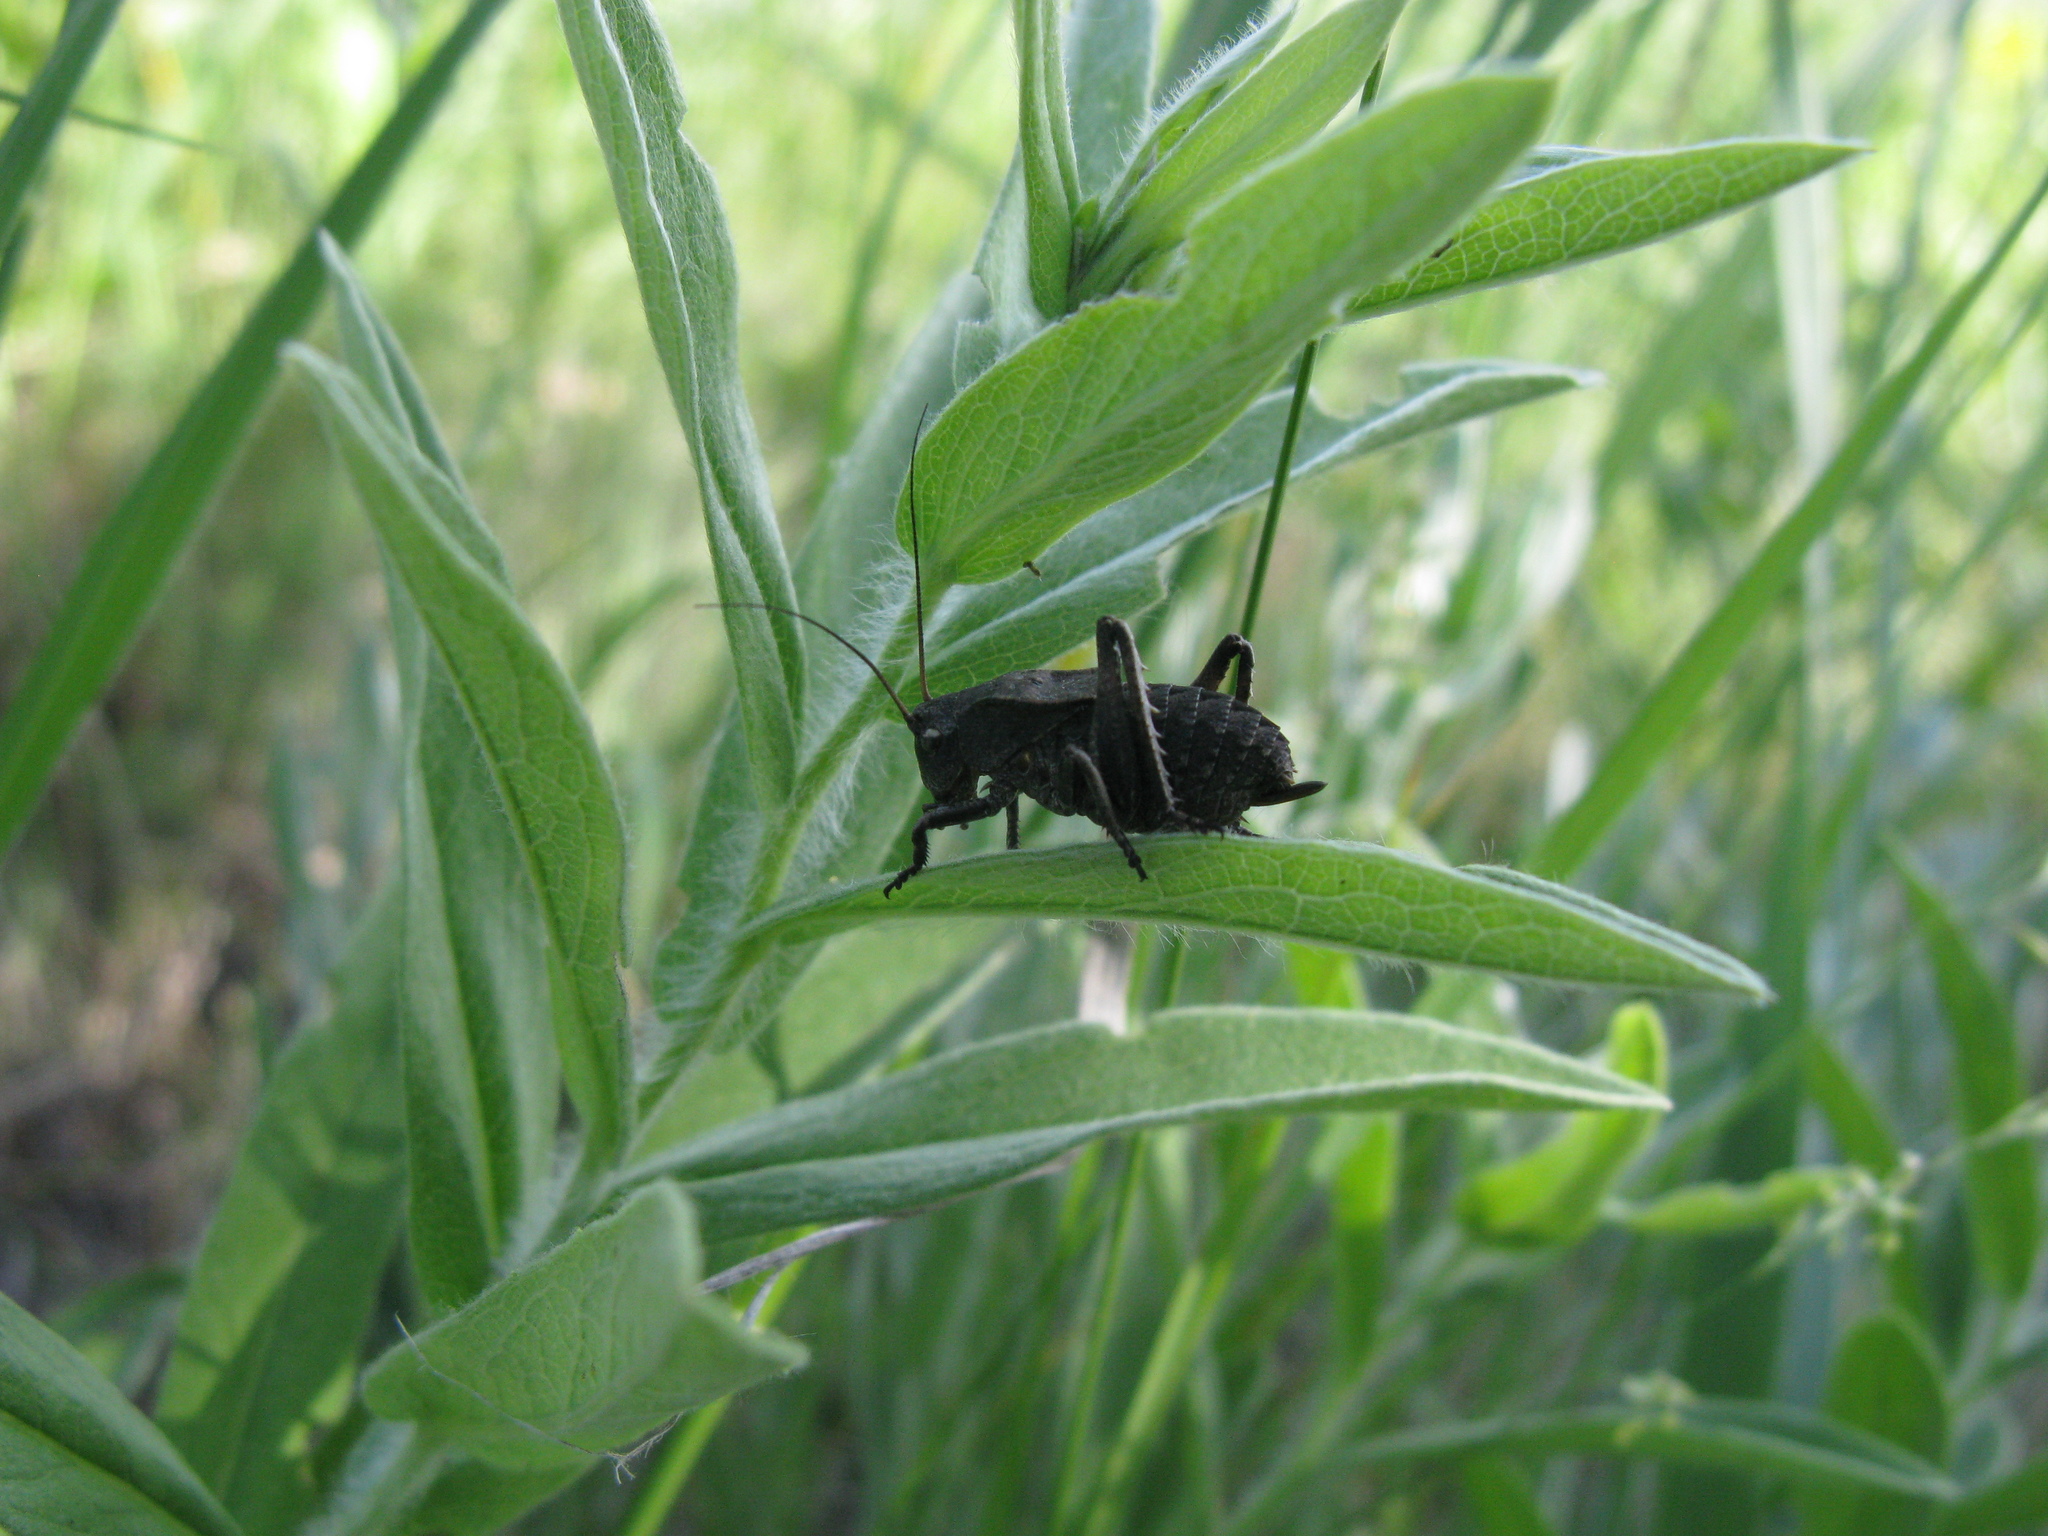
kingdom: Animalia
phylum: Arthropoda
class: Insecta
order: Orthoptera
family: Tettigoniidae
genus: Onconotus
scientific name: Onconotus servillei
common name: Southern barbed-wire bush-cricket
